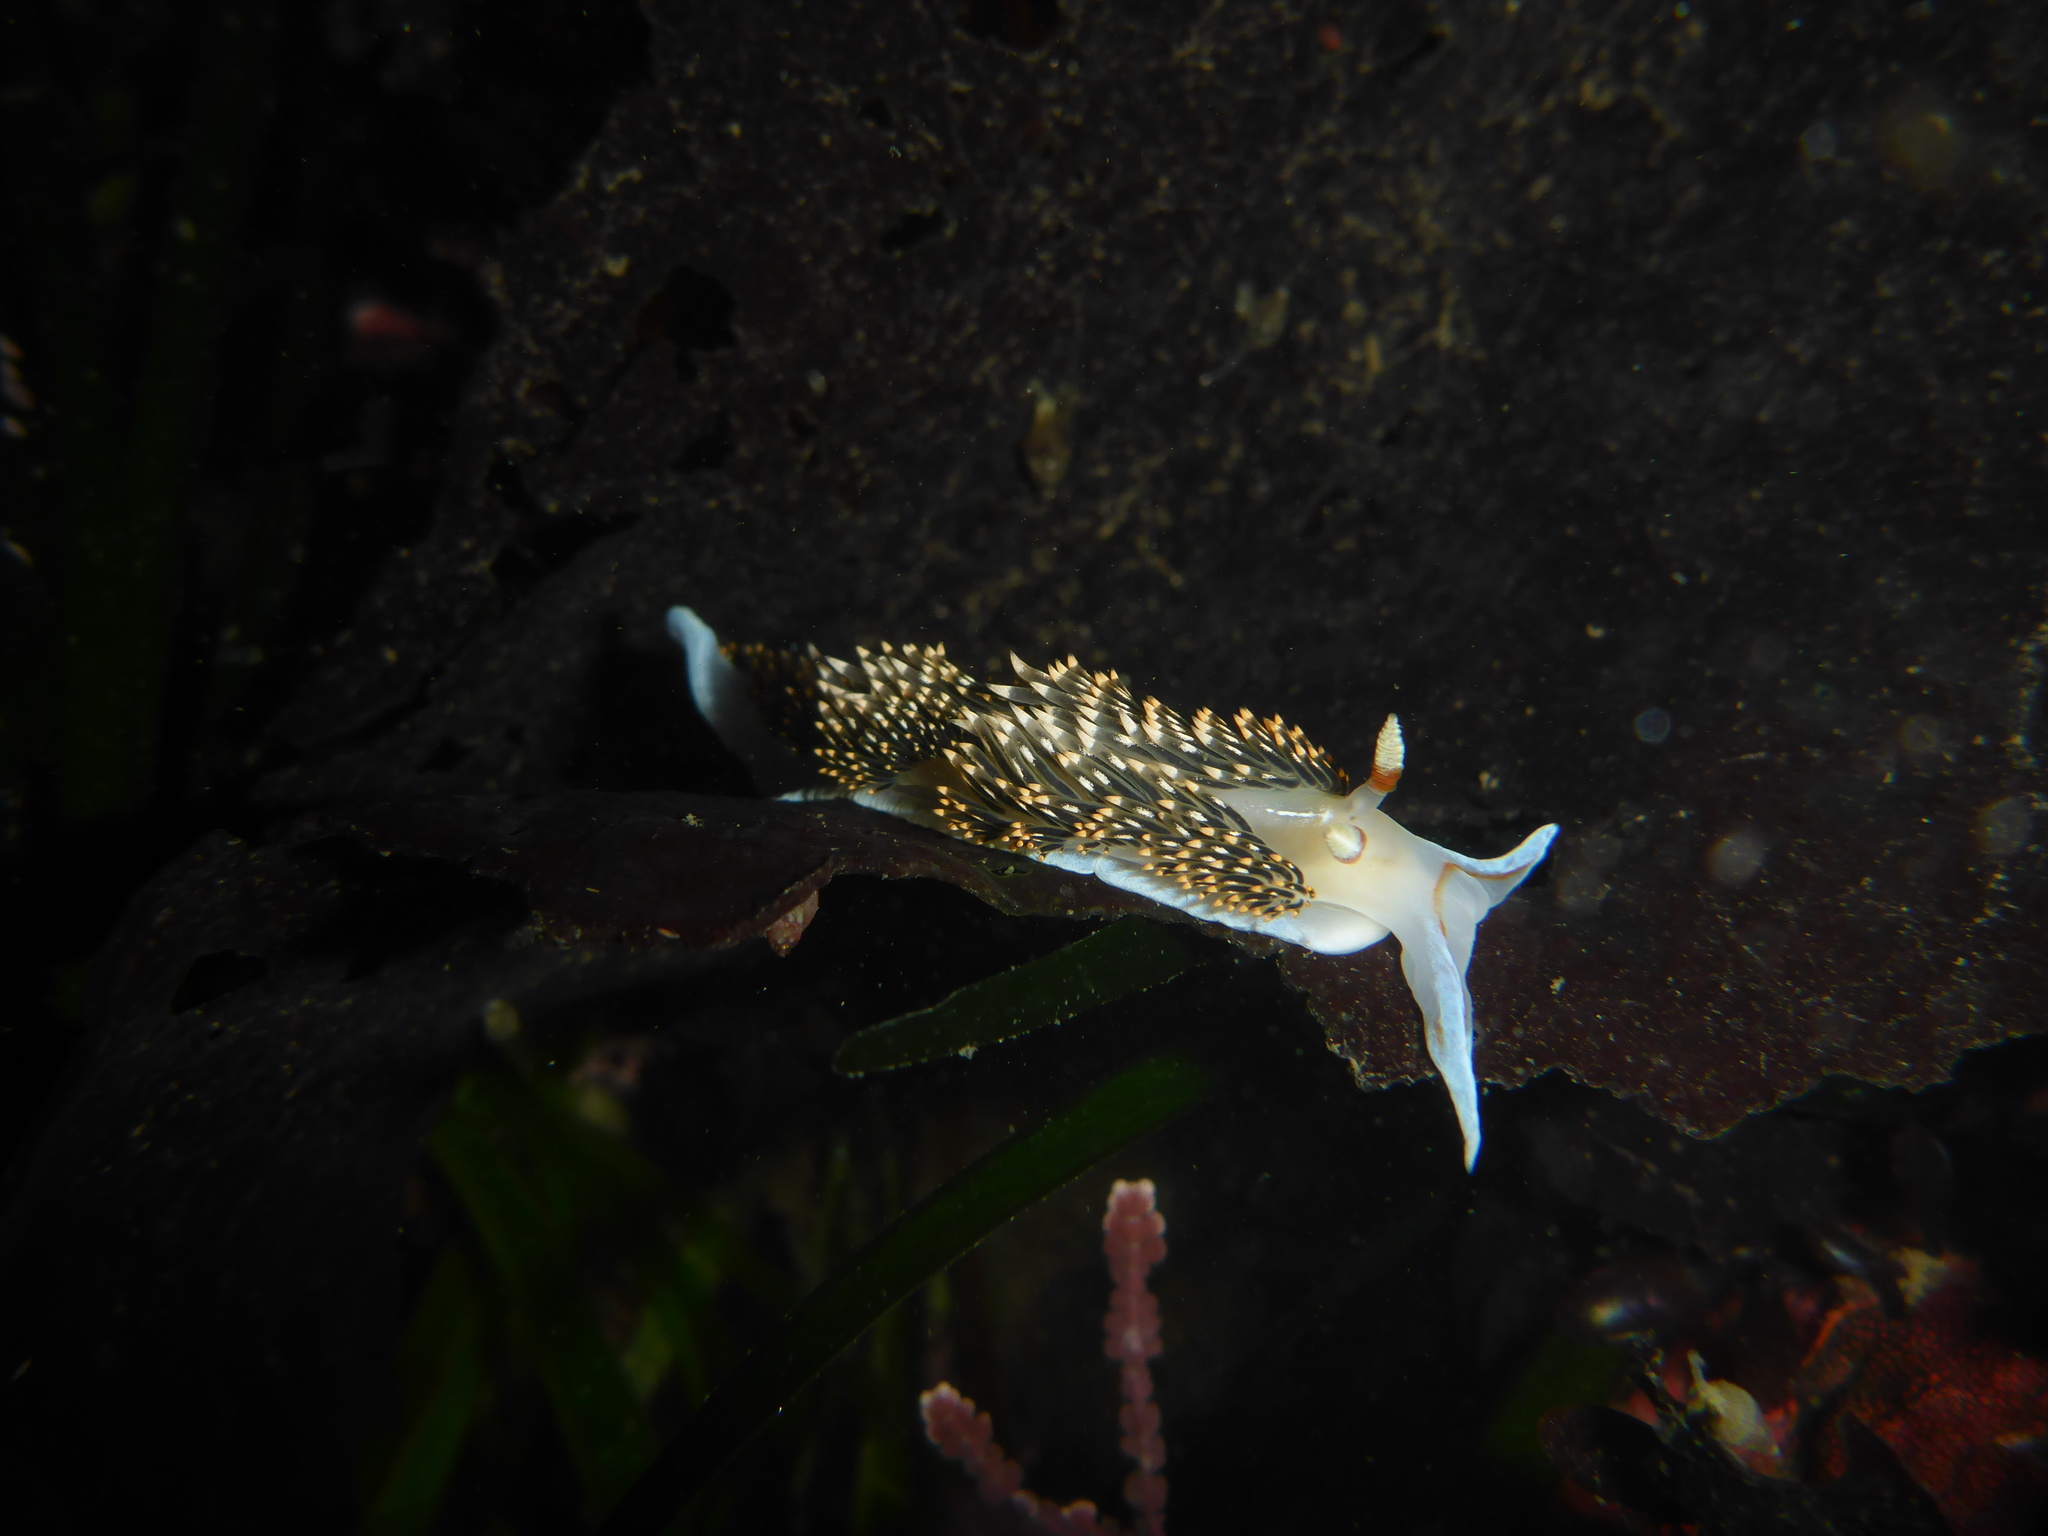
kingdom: Animalia
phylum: Mollusca
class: Gastropoda
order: Nudibranchia
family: Facelinidae
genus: Phidiana
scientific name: Phidiana hiltoni
